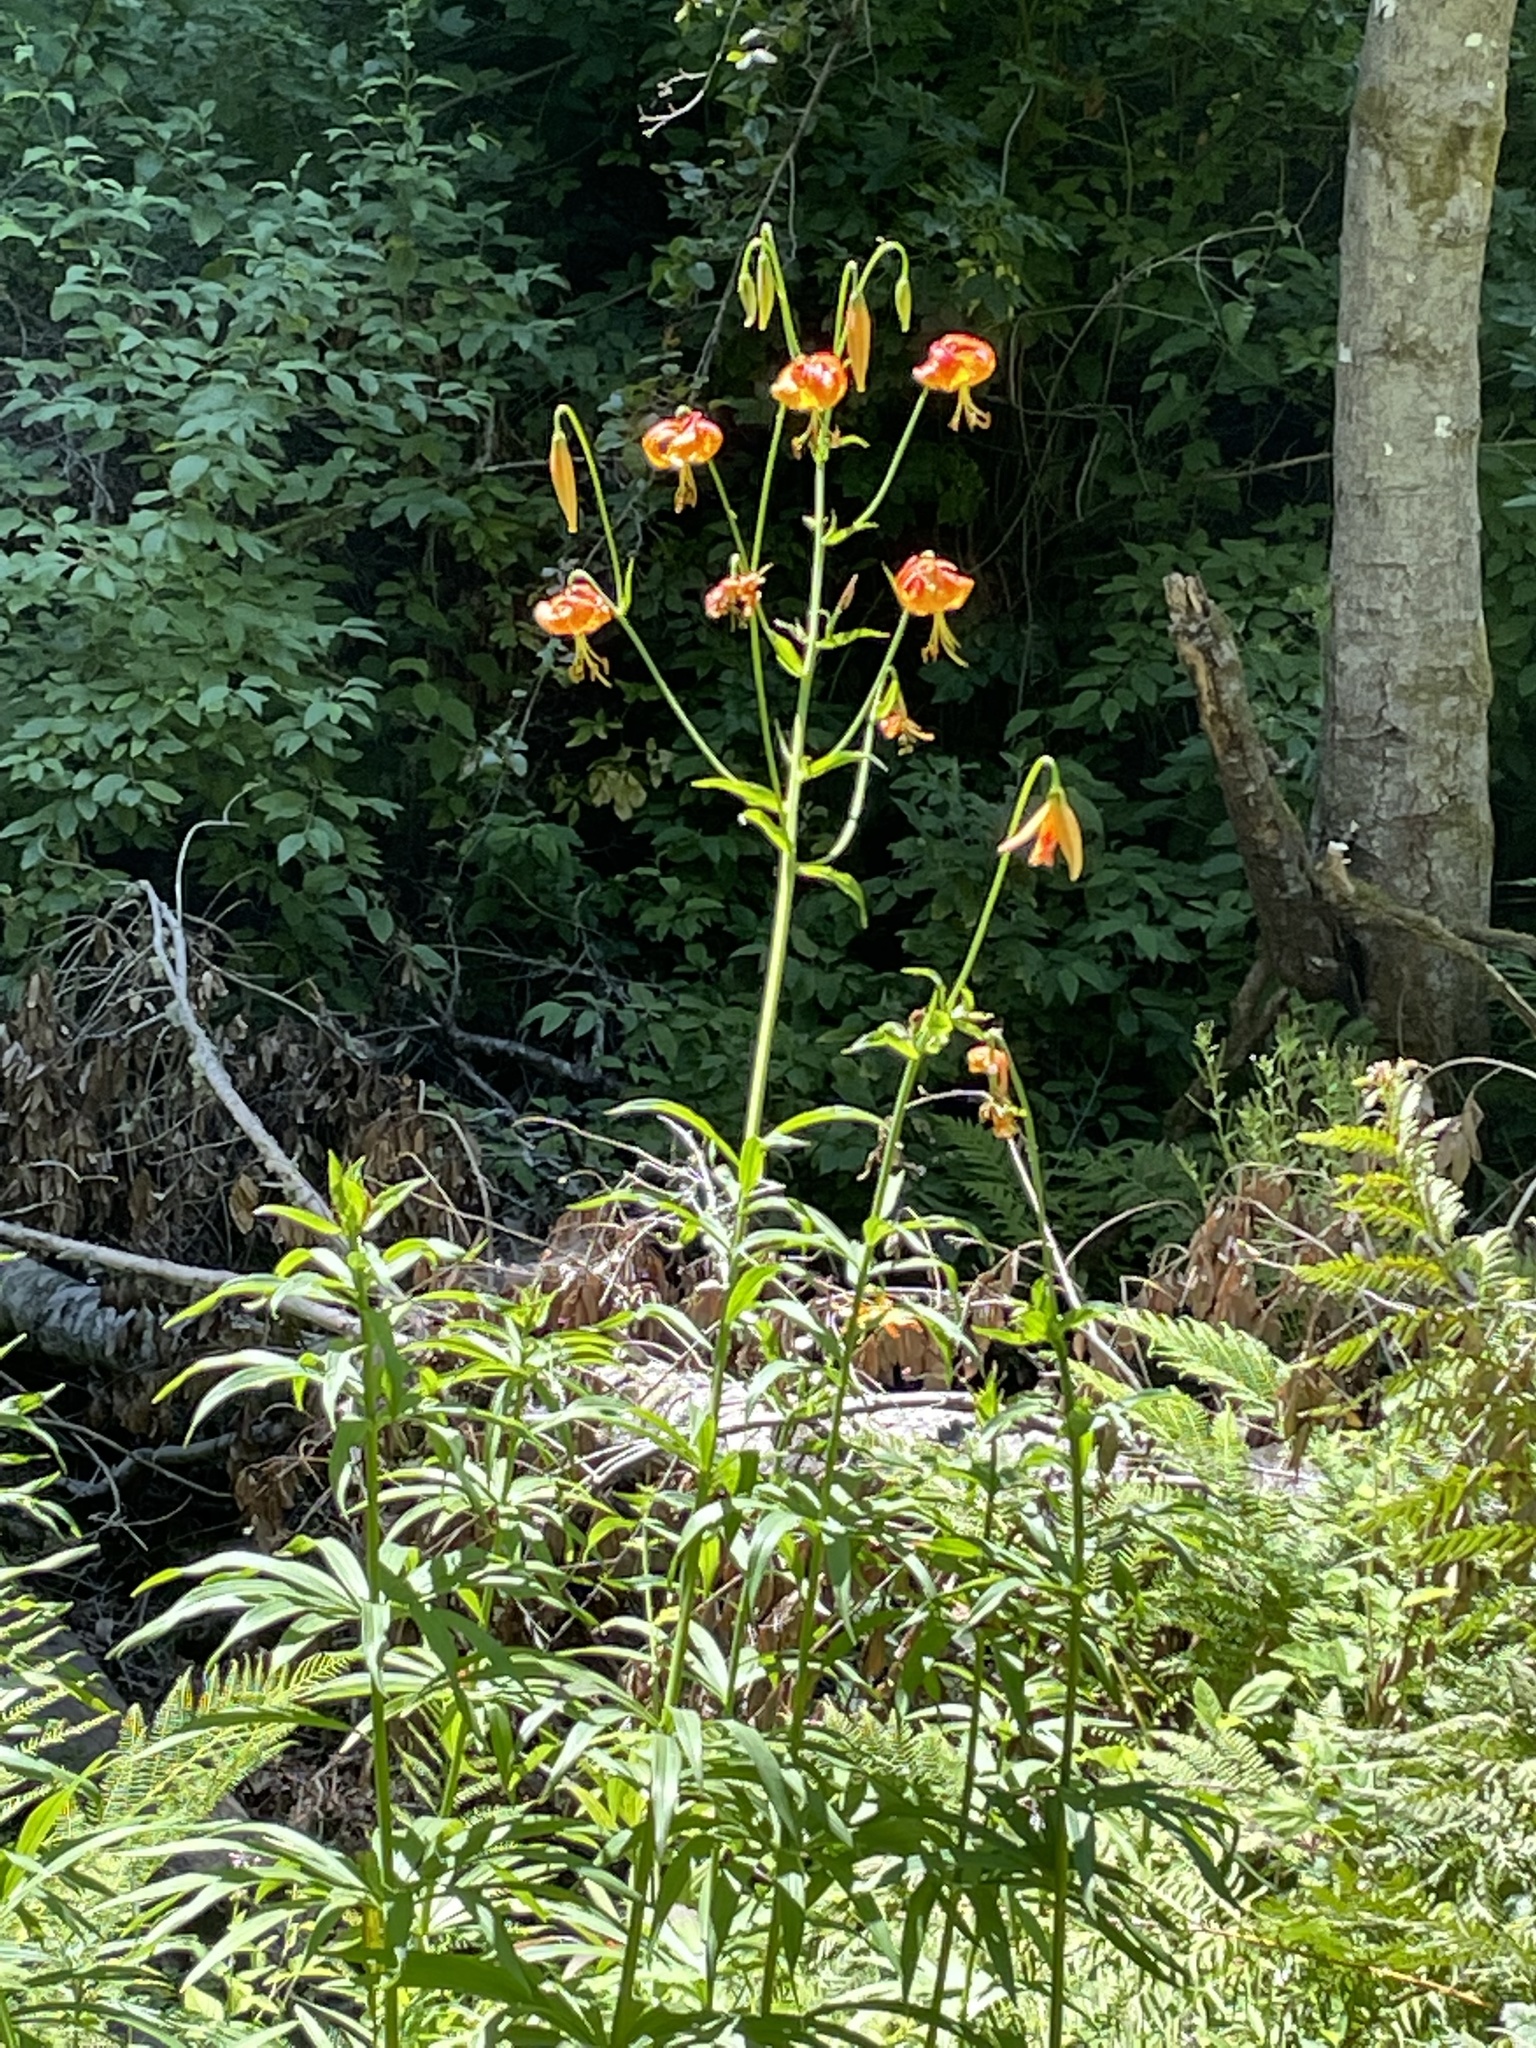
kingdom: Plantae
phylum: Tracheophyta
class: Liliopsida
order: Liliales
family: Liliaceae
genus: Lilium
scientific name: Lilium pardalinum
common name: Panther lily
